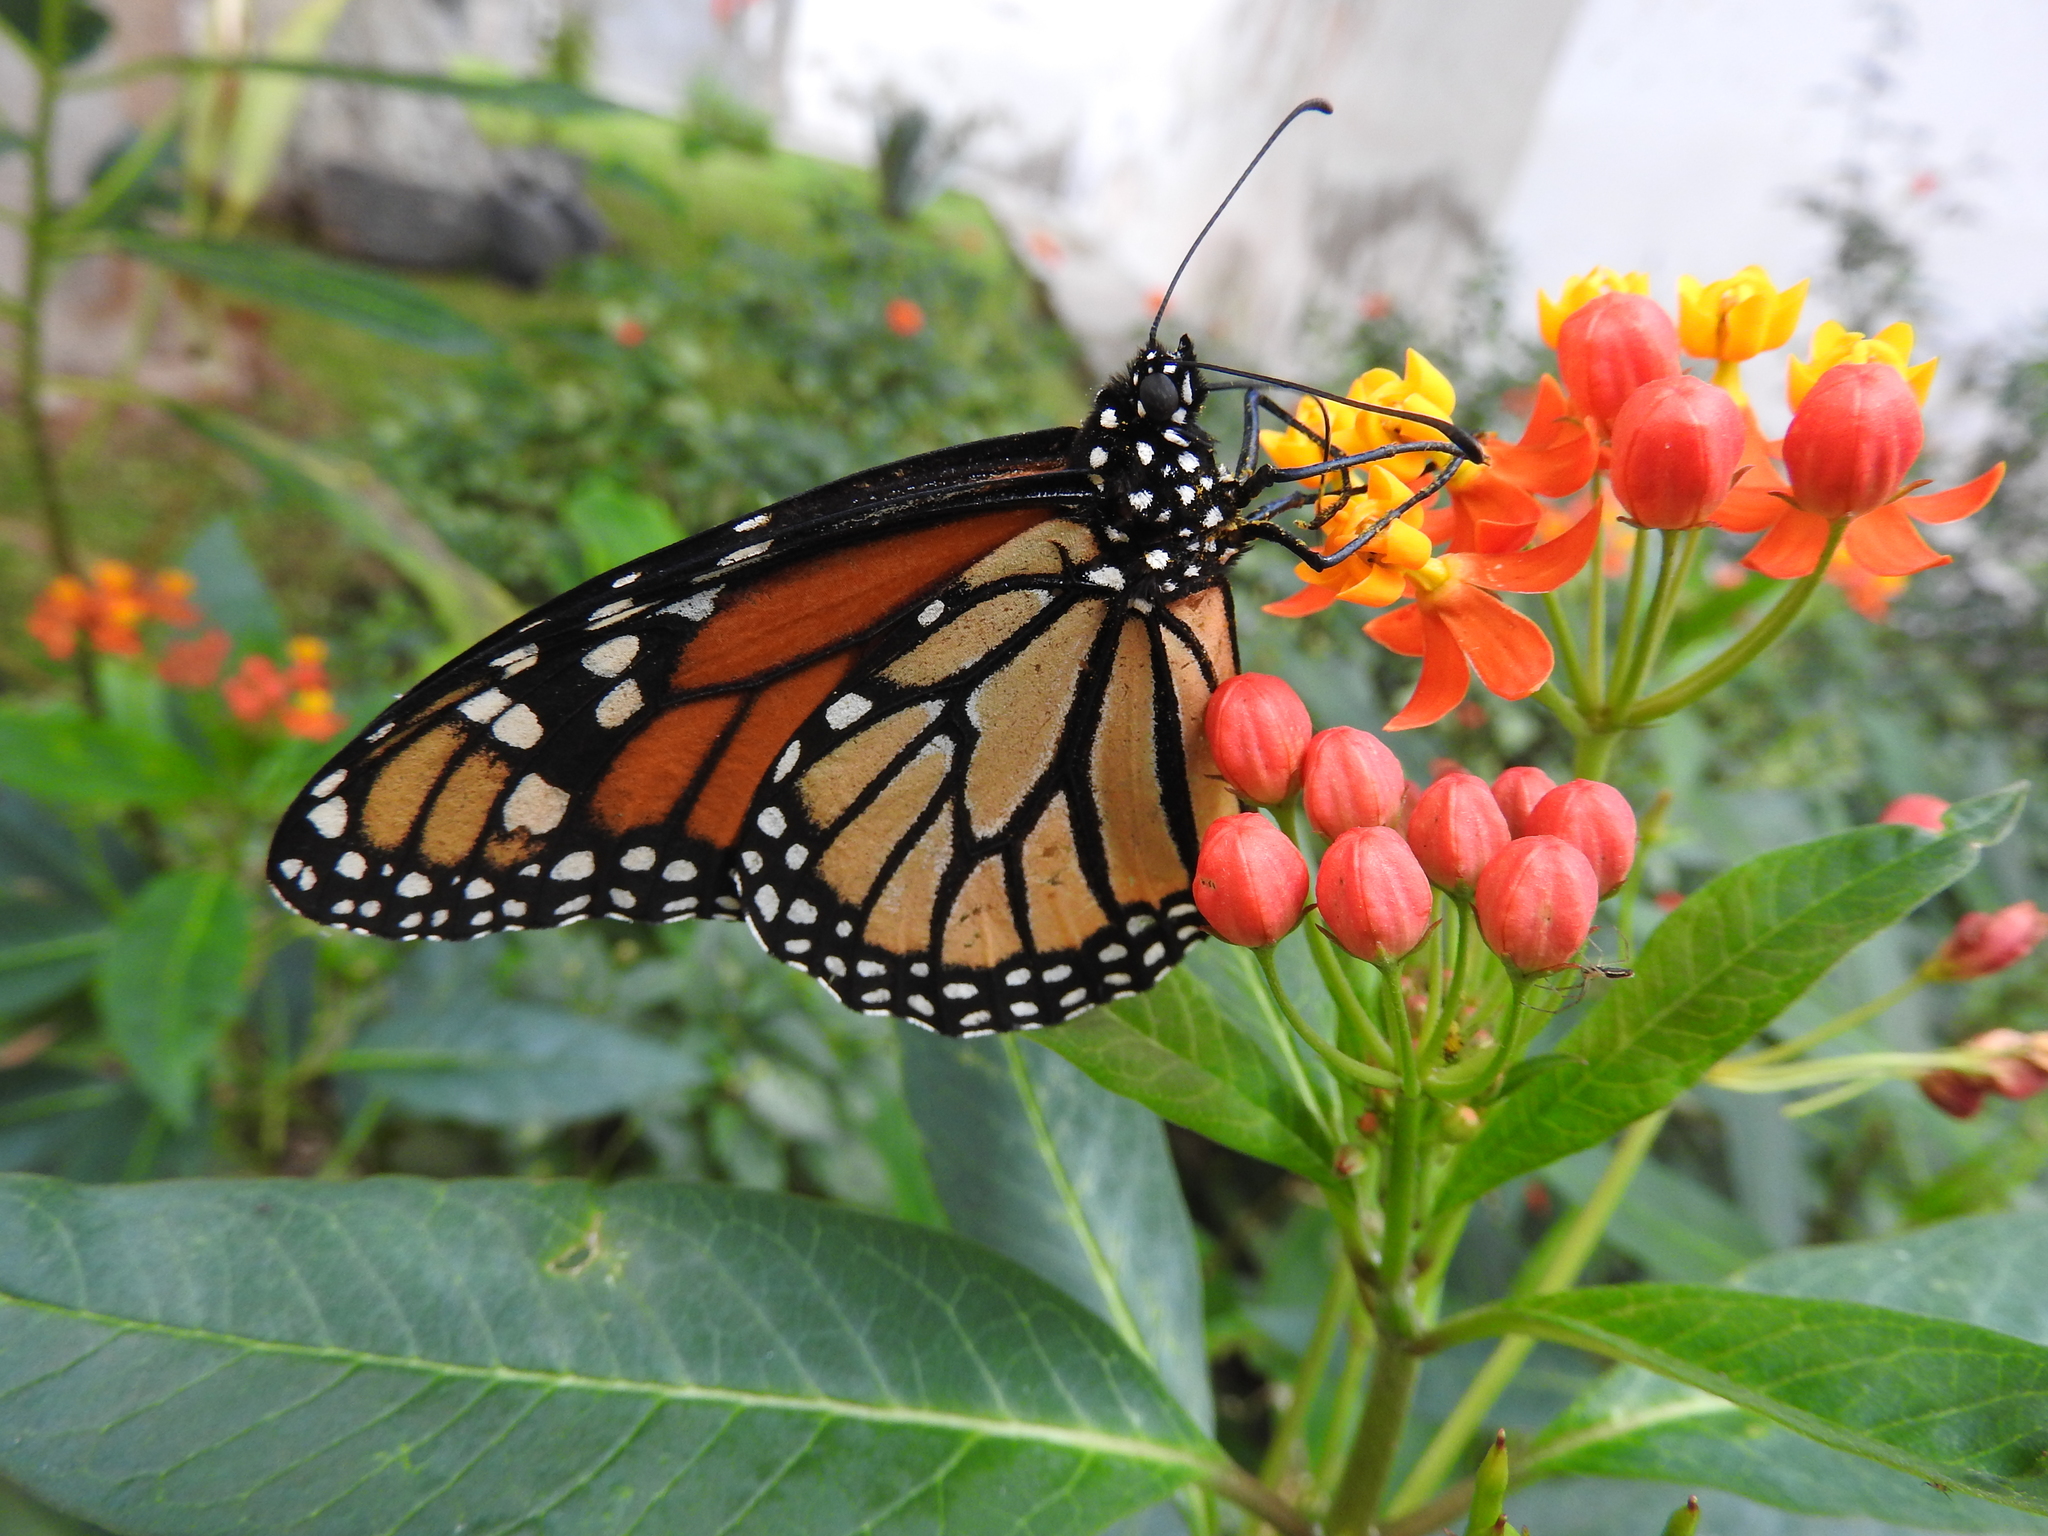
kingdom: Animalia
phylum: Arthropoda
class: Insecta
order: Lepidoptera
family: Nymphalidae
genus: Danaus
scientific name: Danaus plexippus
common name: Monarch
